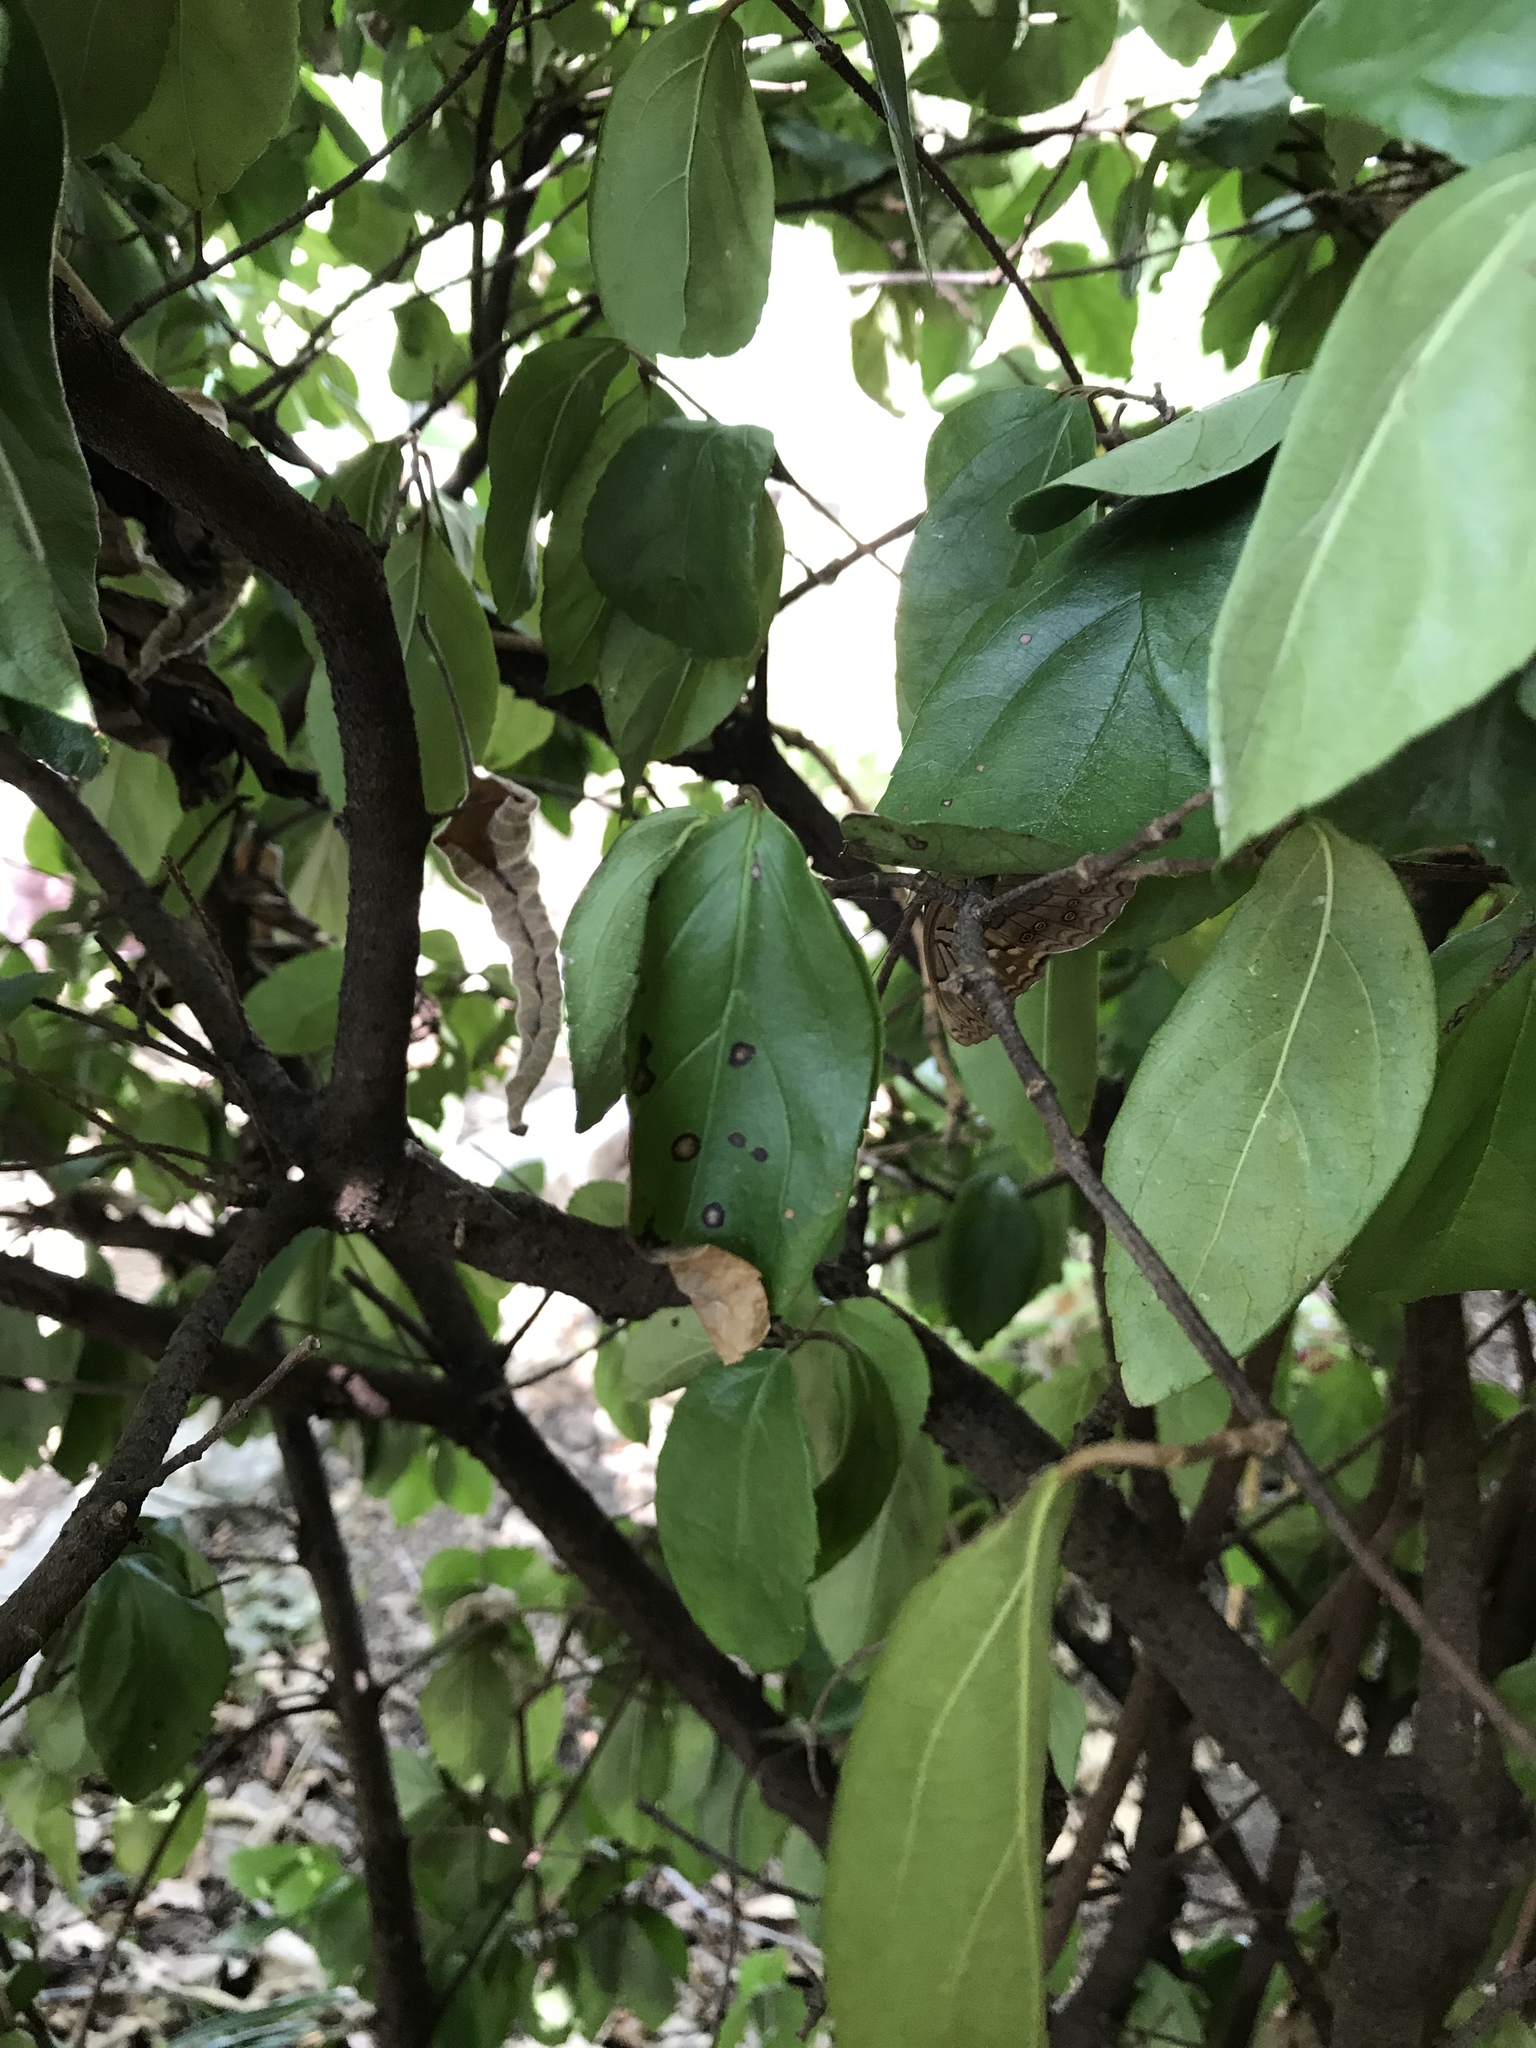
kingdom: Animalia
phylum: Arthropoda
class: Insecta
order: Lepidoptera
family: Nymphalidae
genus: Asterocampa
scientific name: Asterocampa clyton
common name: Tawny emperor
